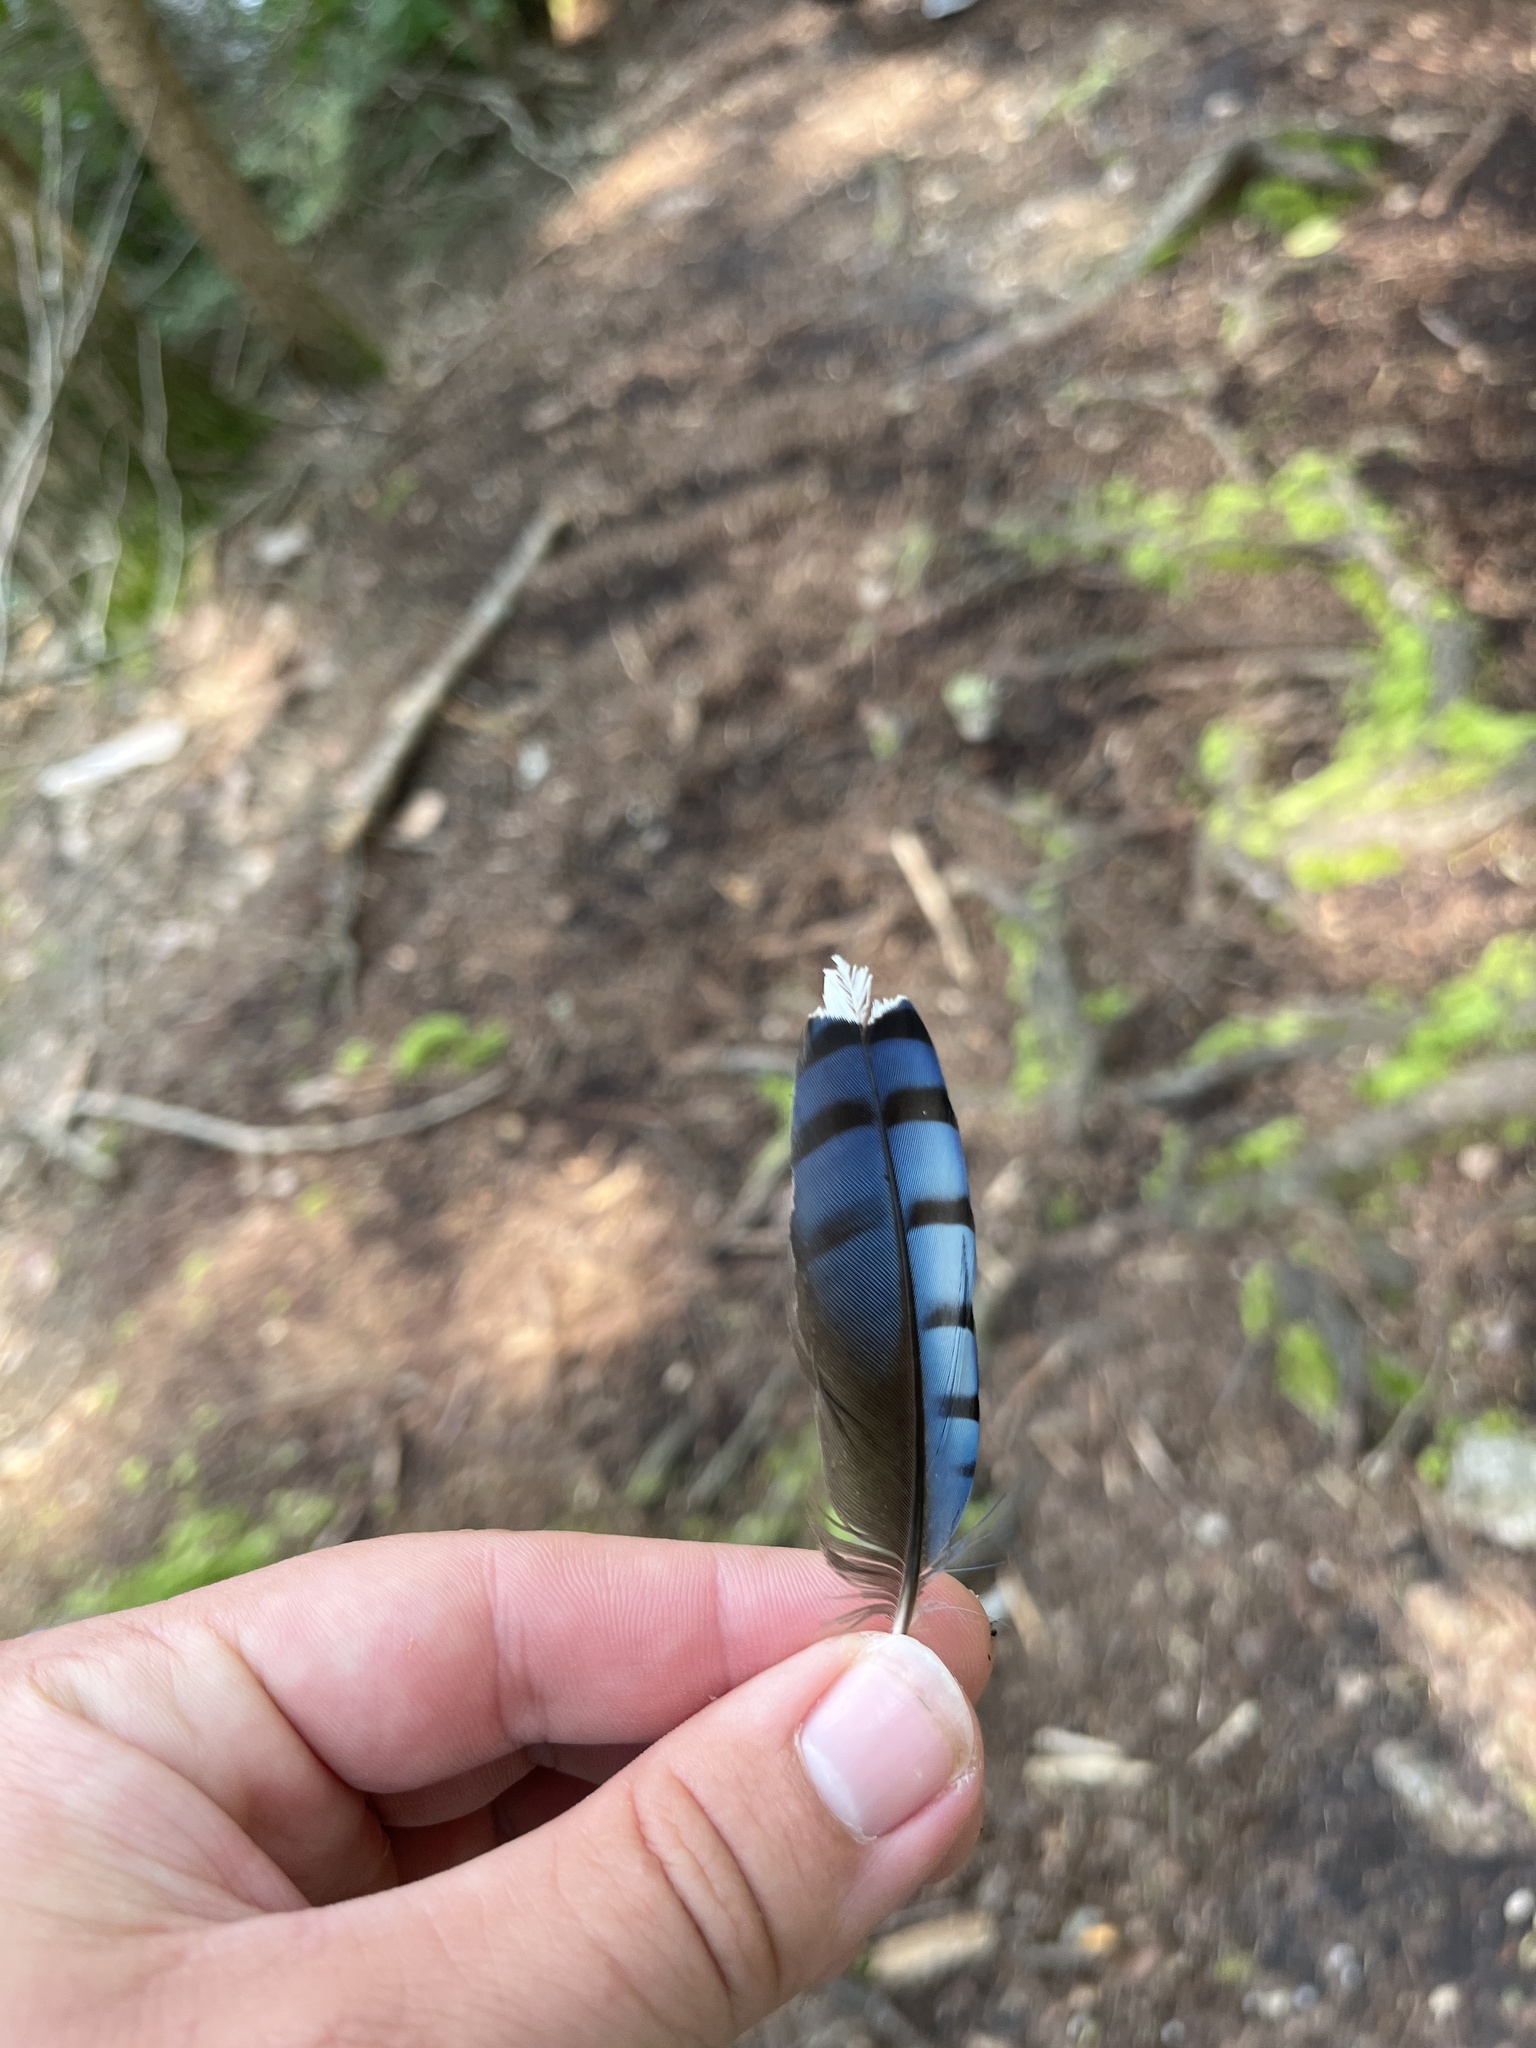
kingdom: Animalia
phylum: Chordata
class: Aves
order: Passeriformes
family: Corvidae
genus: Cyanocitta
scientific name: Cyanocitta cristata
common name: Blue jay
